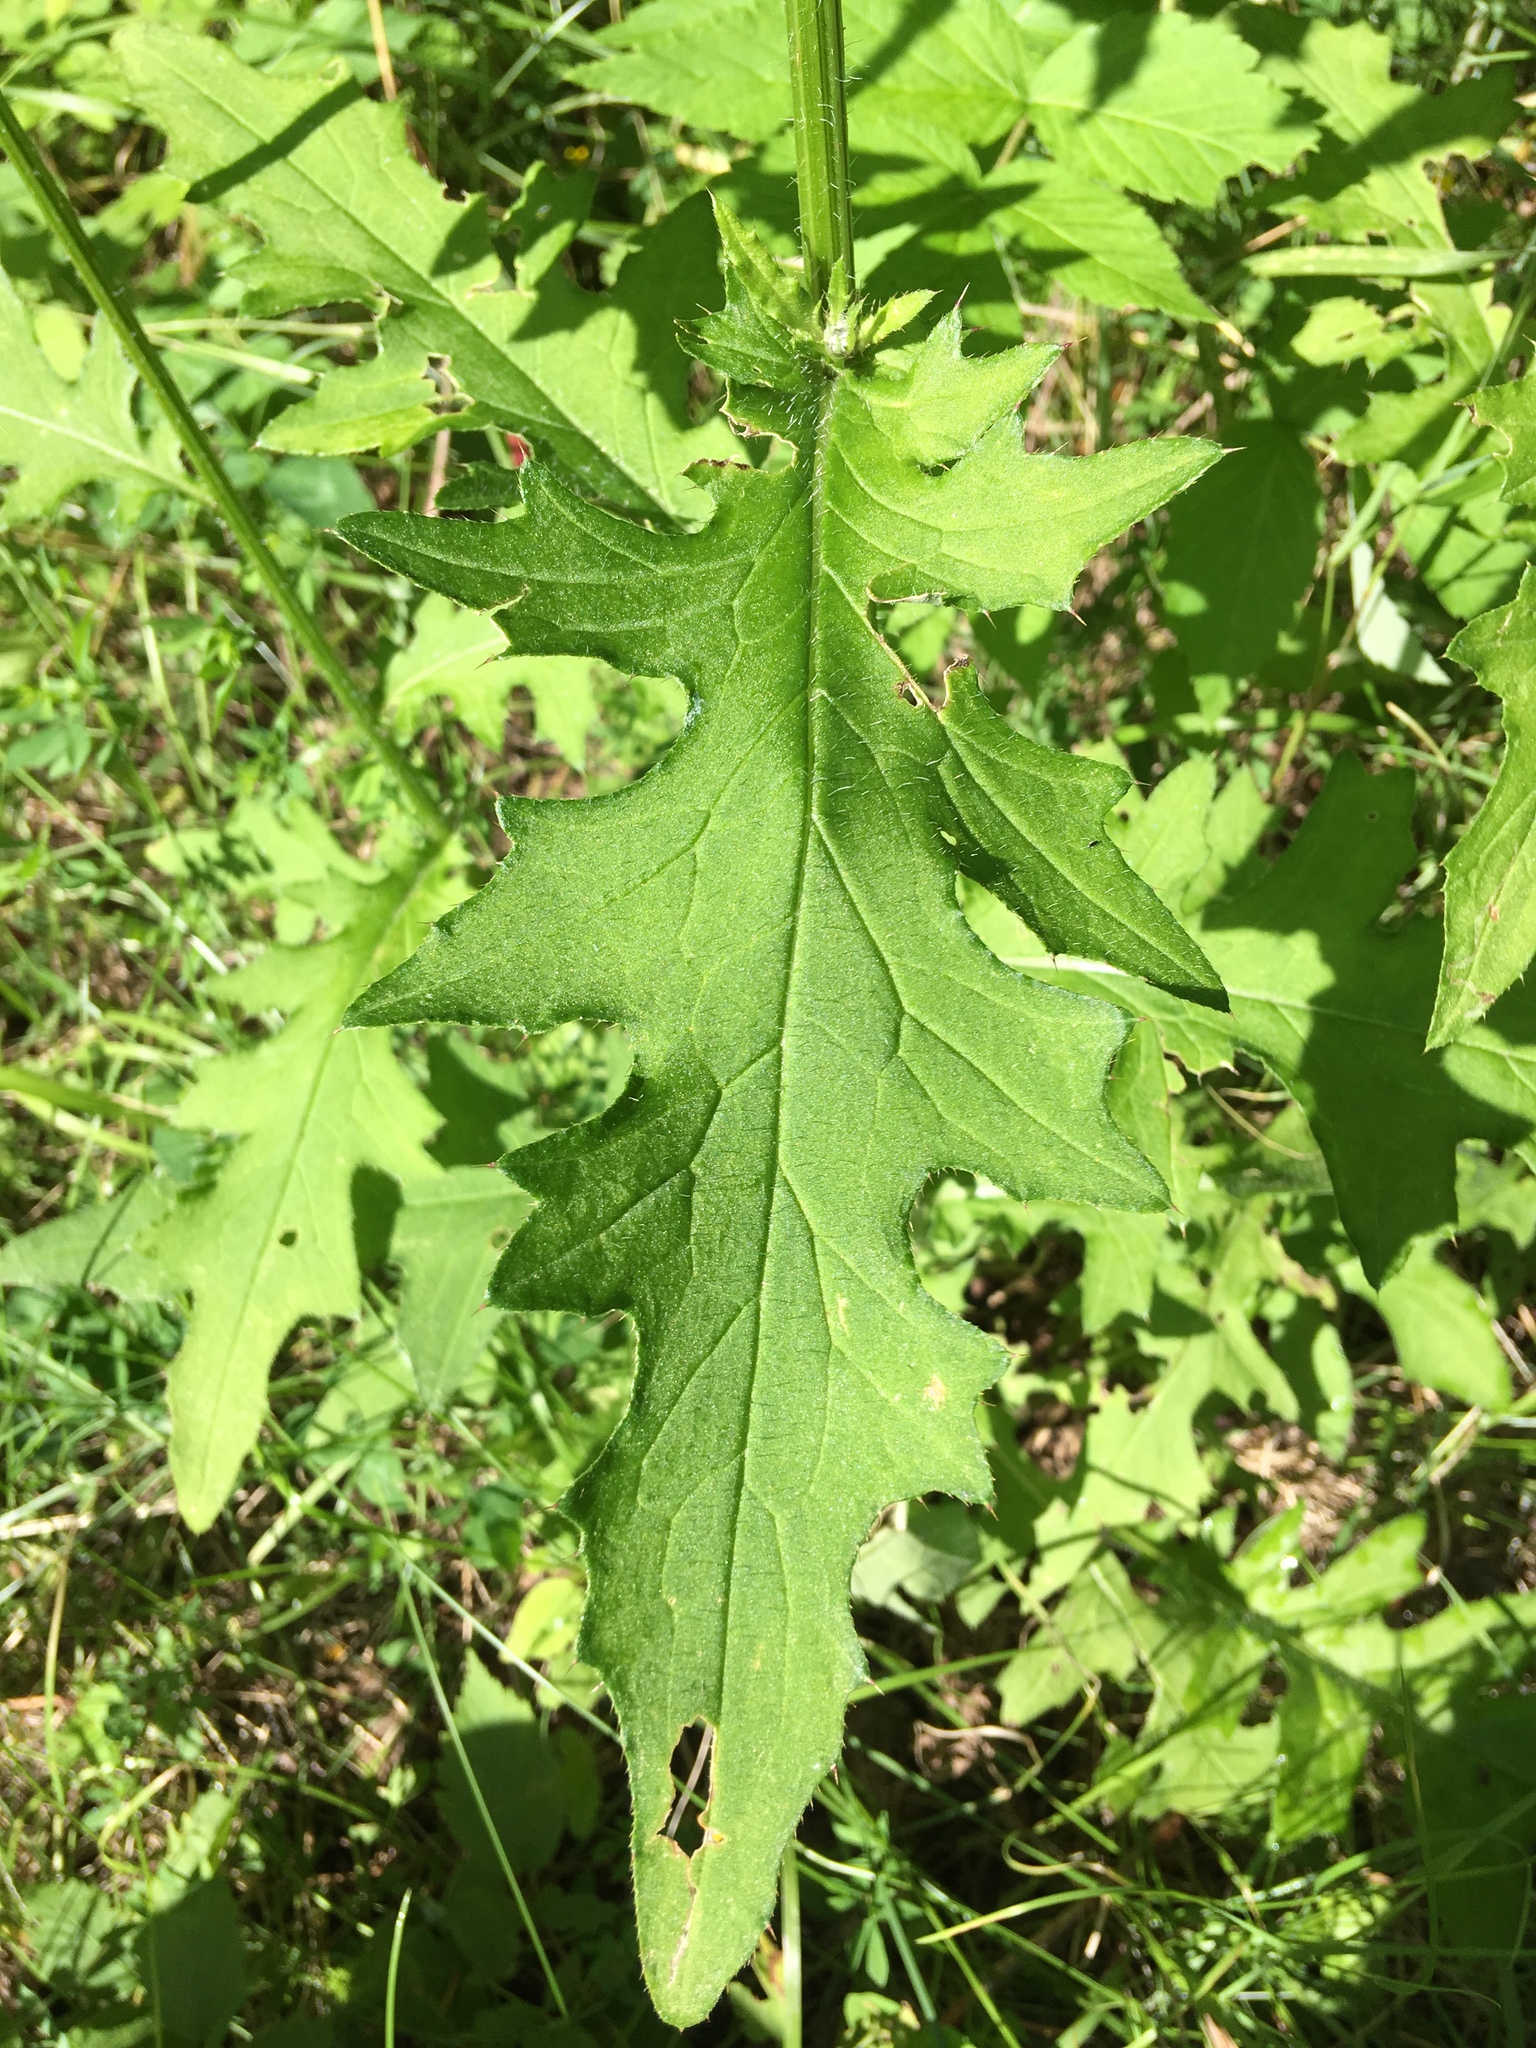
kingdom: Plantae
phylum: Tracheophyta
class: Magnoliopsida
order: Asterales
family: Asteraceae
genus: Cirsium
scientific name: Cirsium muticum
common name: Dunce-nettle
